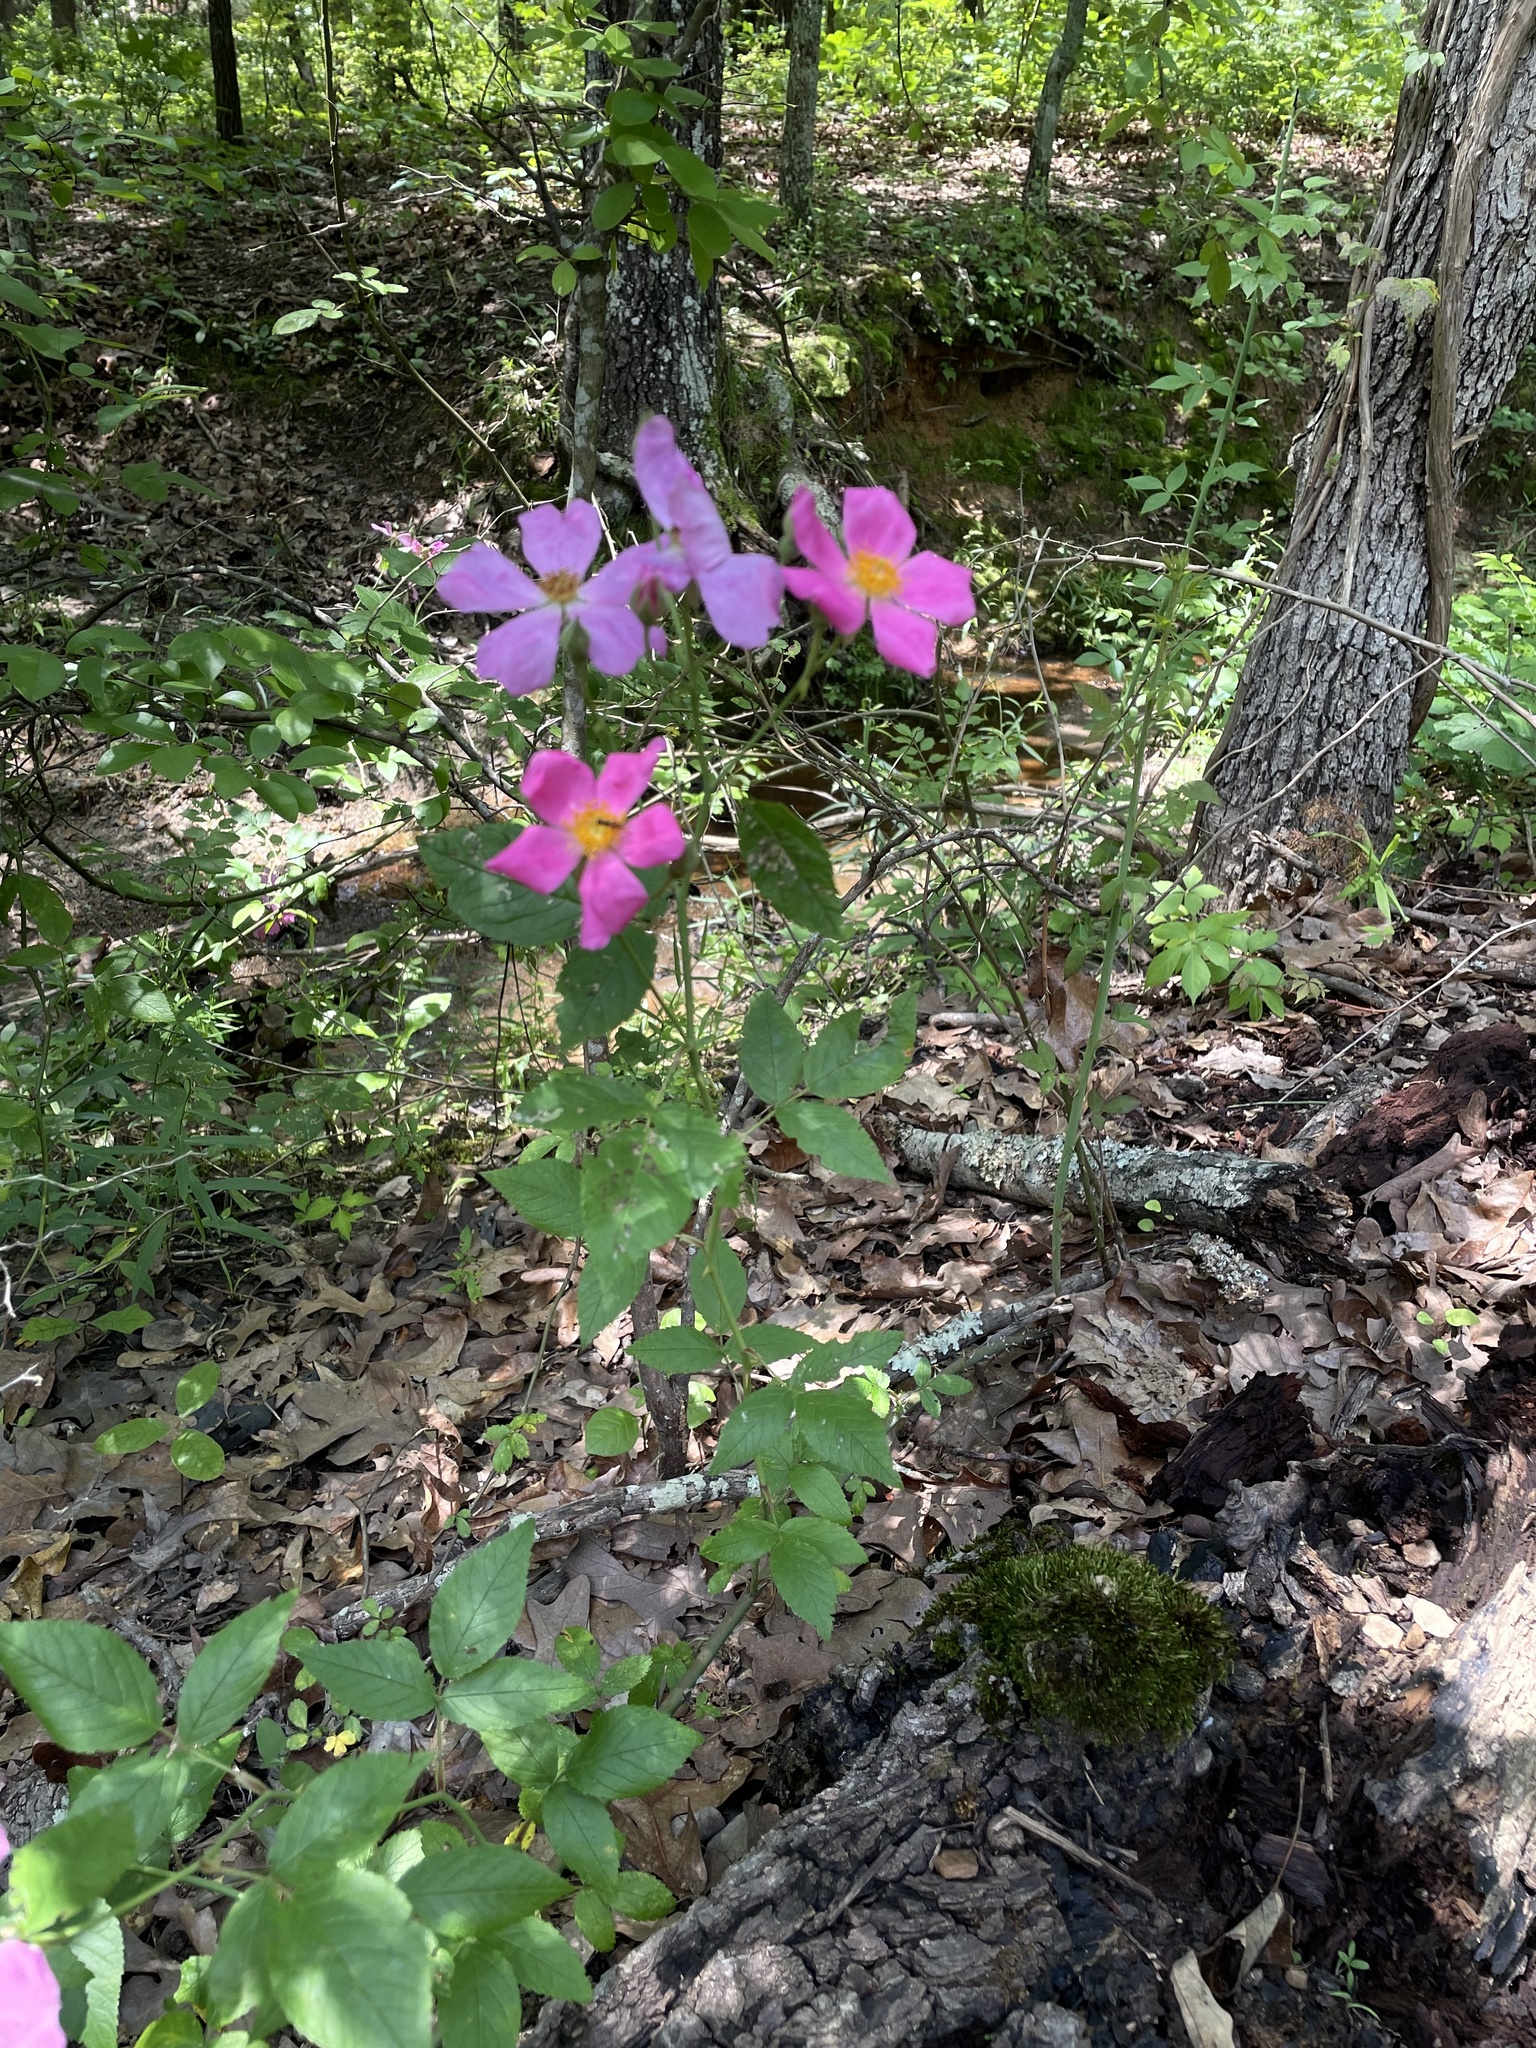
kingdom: Plantae
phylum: Tracheophyta
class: Magnoliopsida
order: Rosales
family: Rosaceae
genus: Rosa
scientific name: Rosa setigera
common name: Prairie rose
